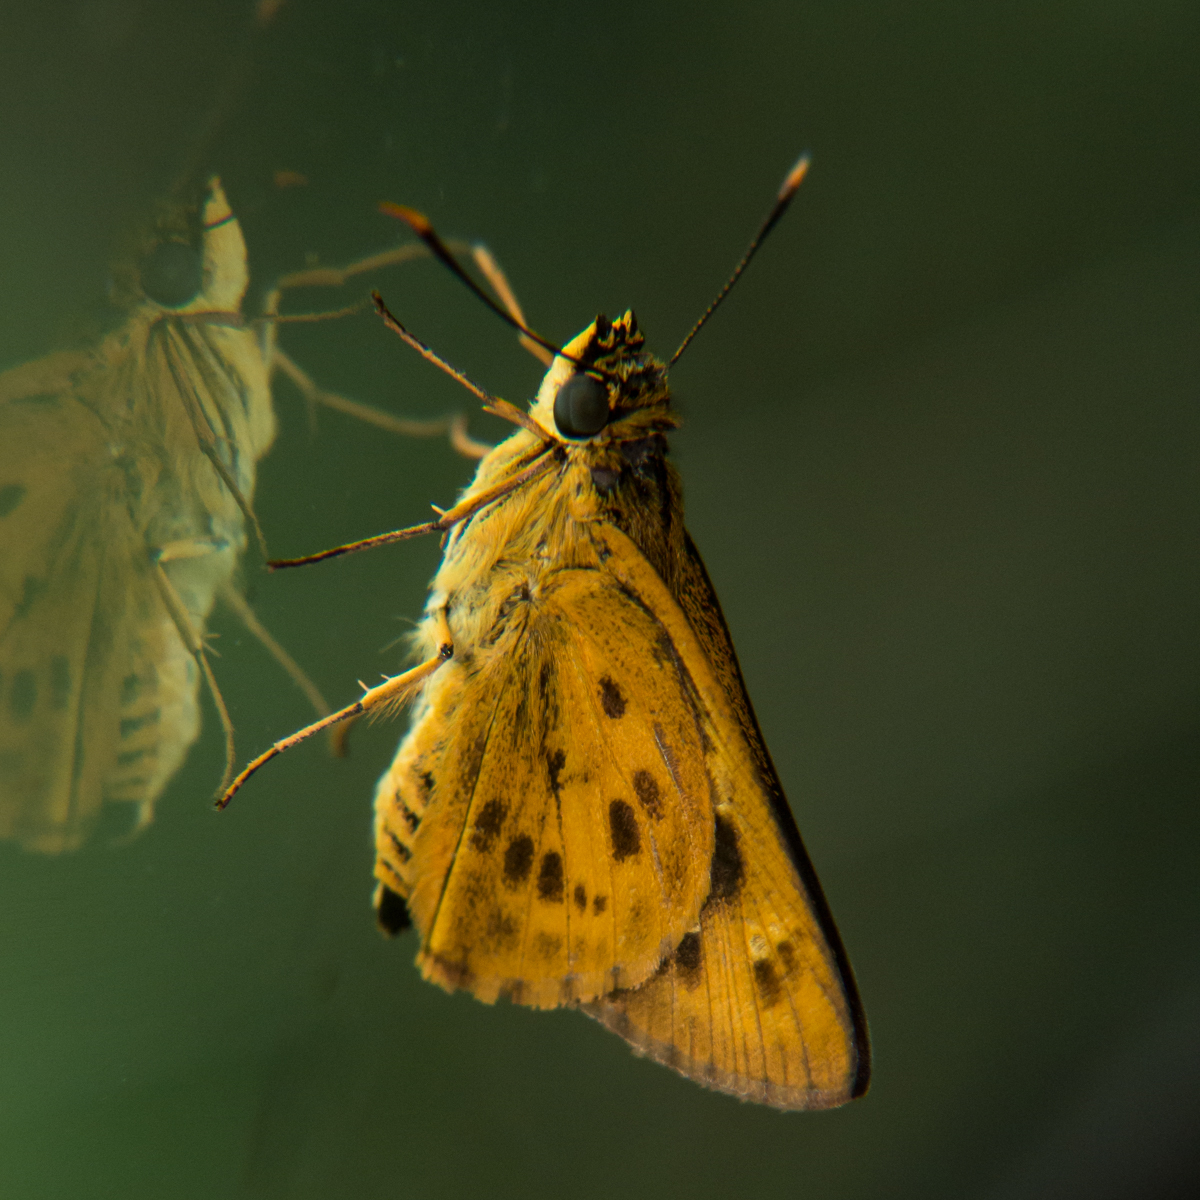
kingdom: Animalia
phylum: Arthropoda
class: Insecta
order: Lepidoptera
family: Hesperiidae
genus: Thoressa
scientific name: Thoressa masoni
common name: Golden ace
